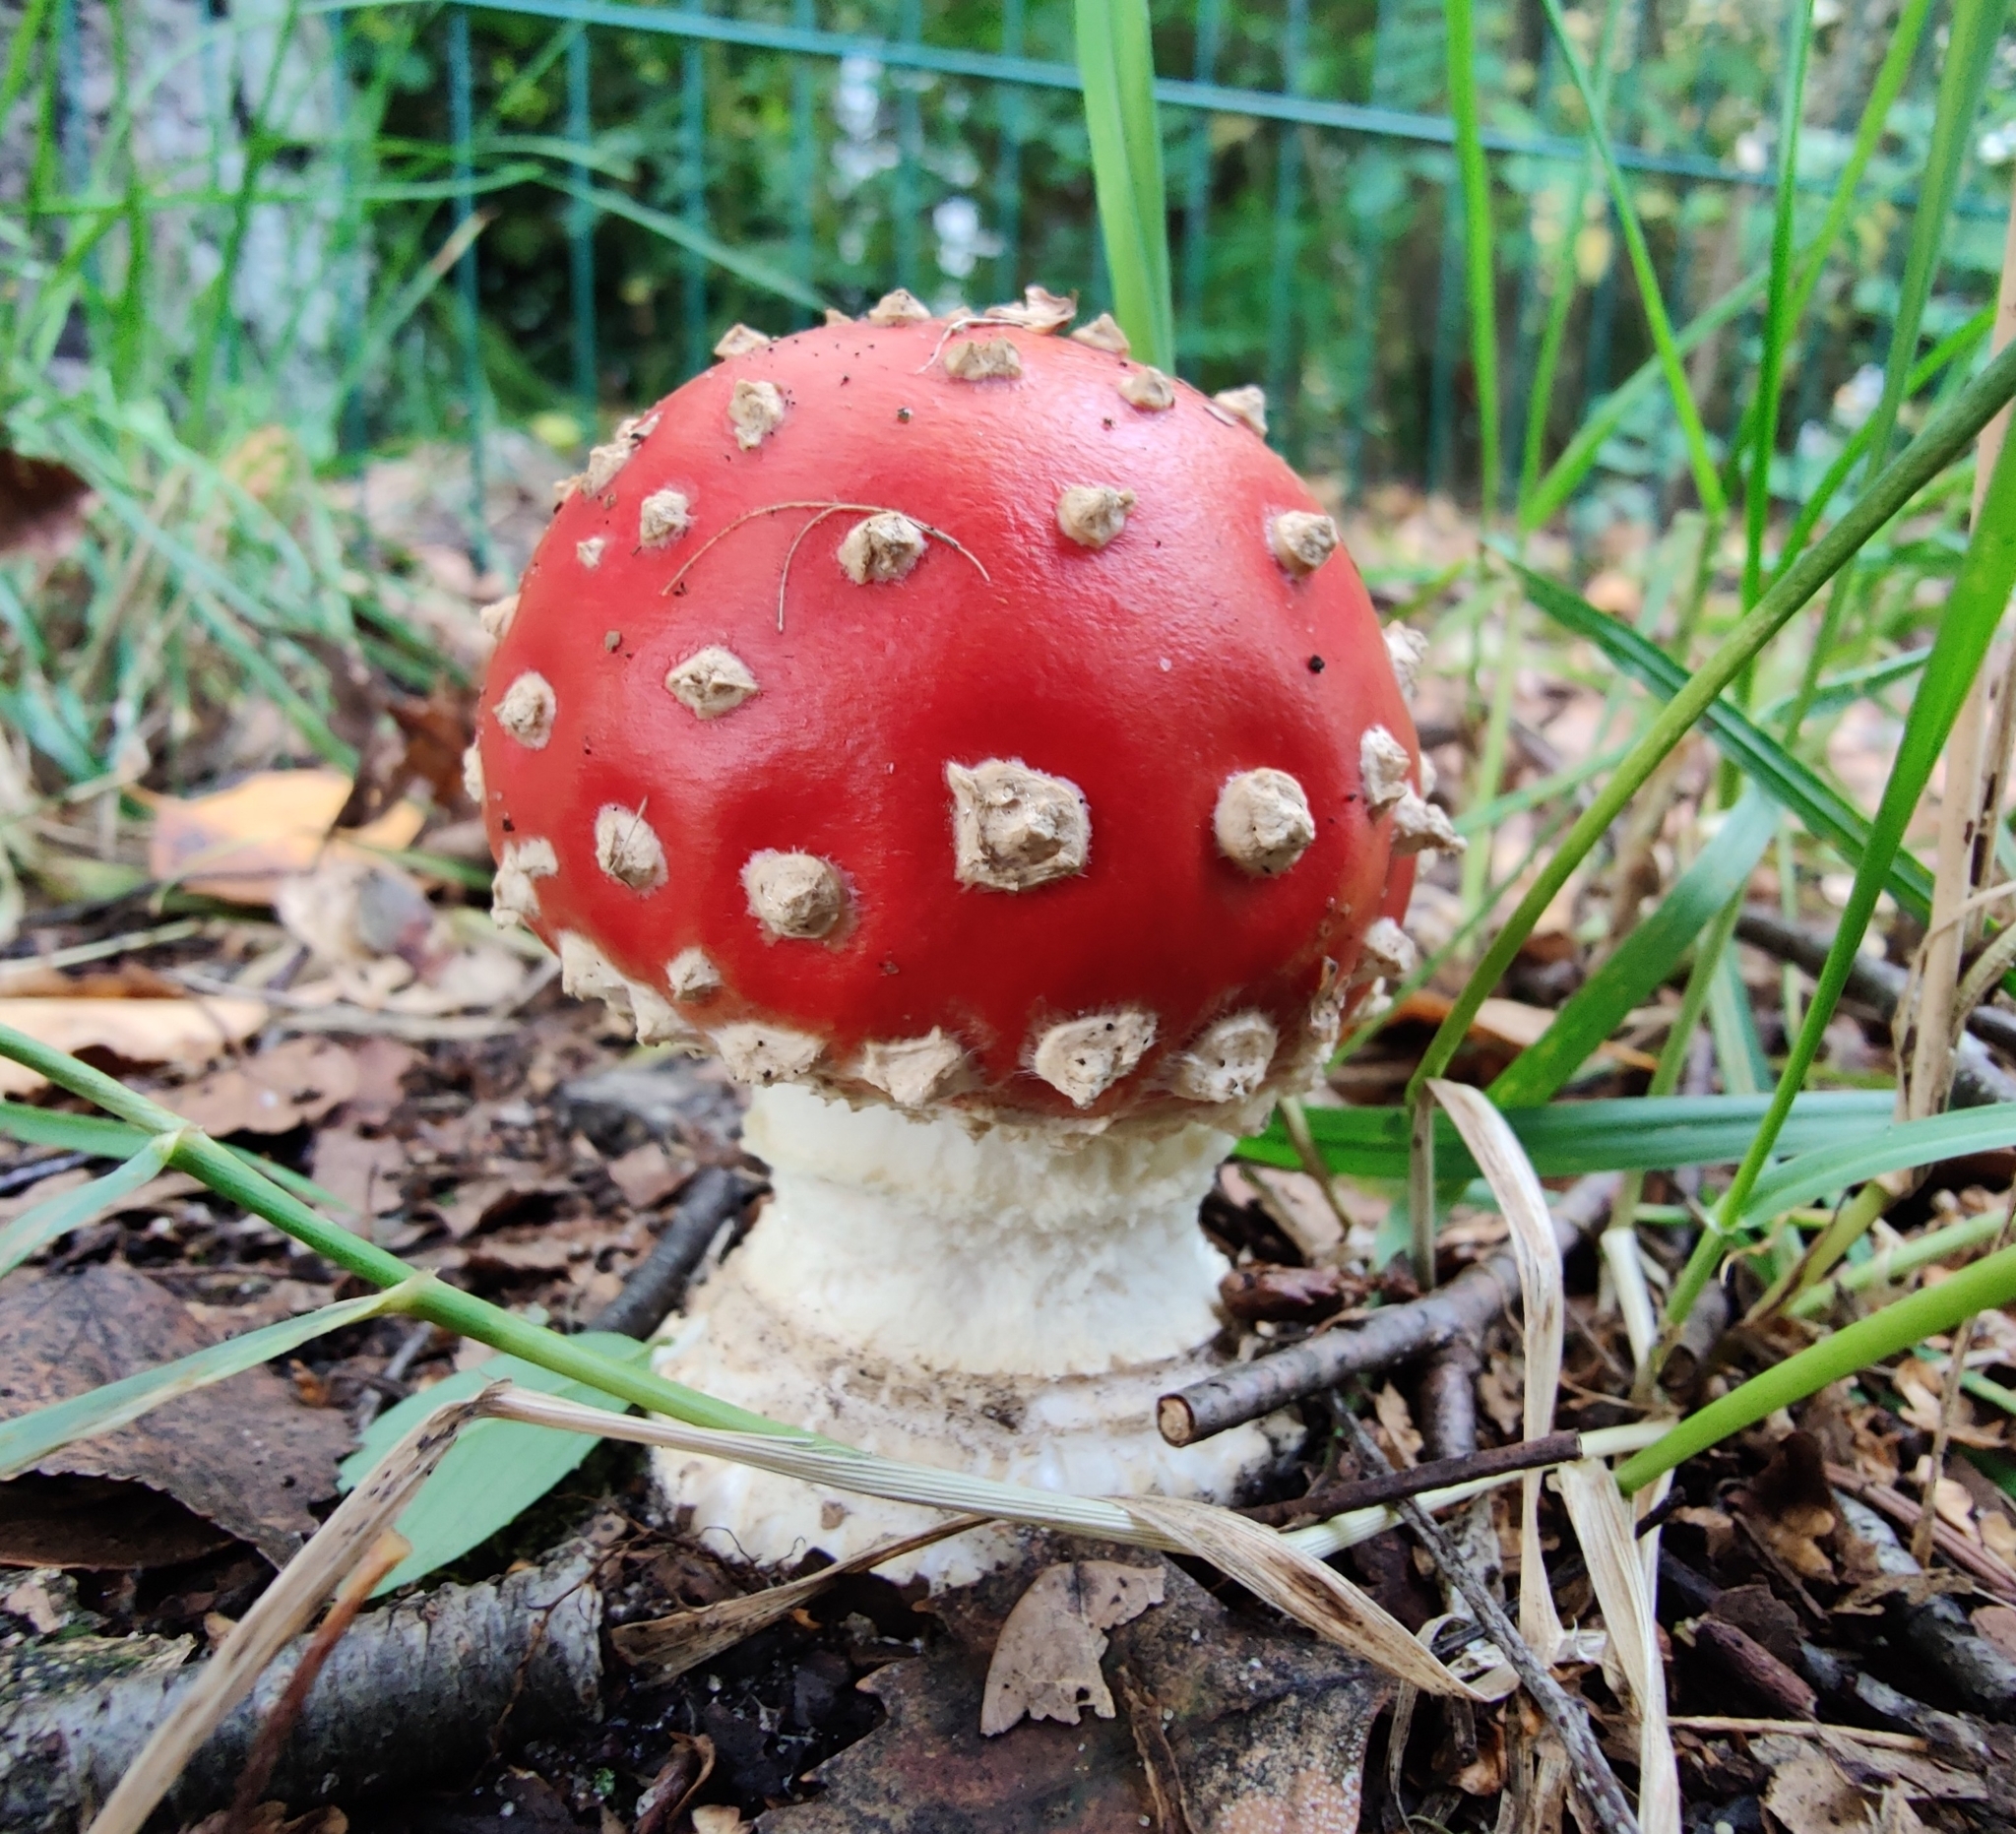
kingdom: Fungi
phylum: Basidiomycota
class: Agaricomycetes
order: Agaricales
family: Amanitaceae
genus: Amanita
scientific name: Amanita muscaria
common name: Fly agaric
